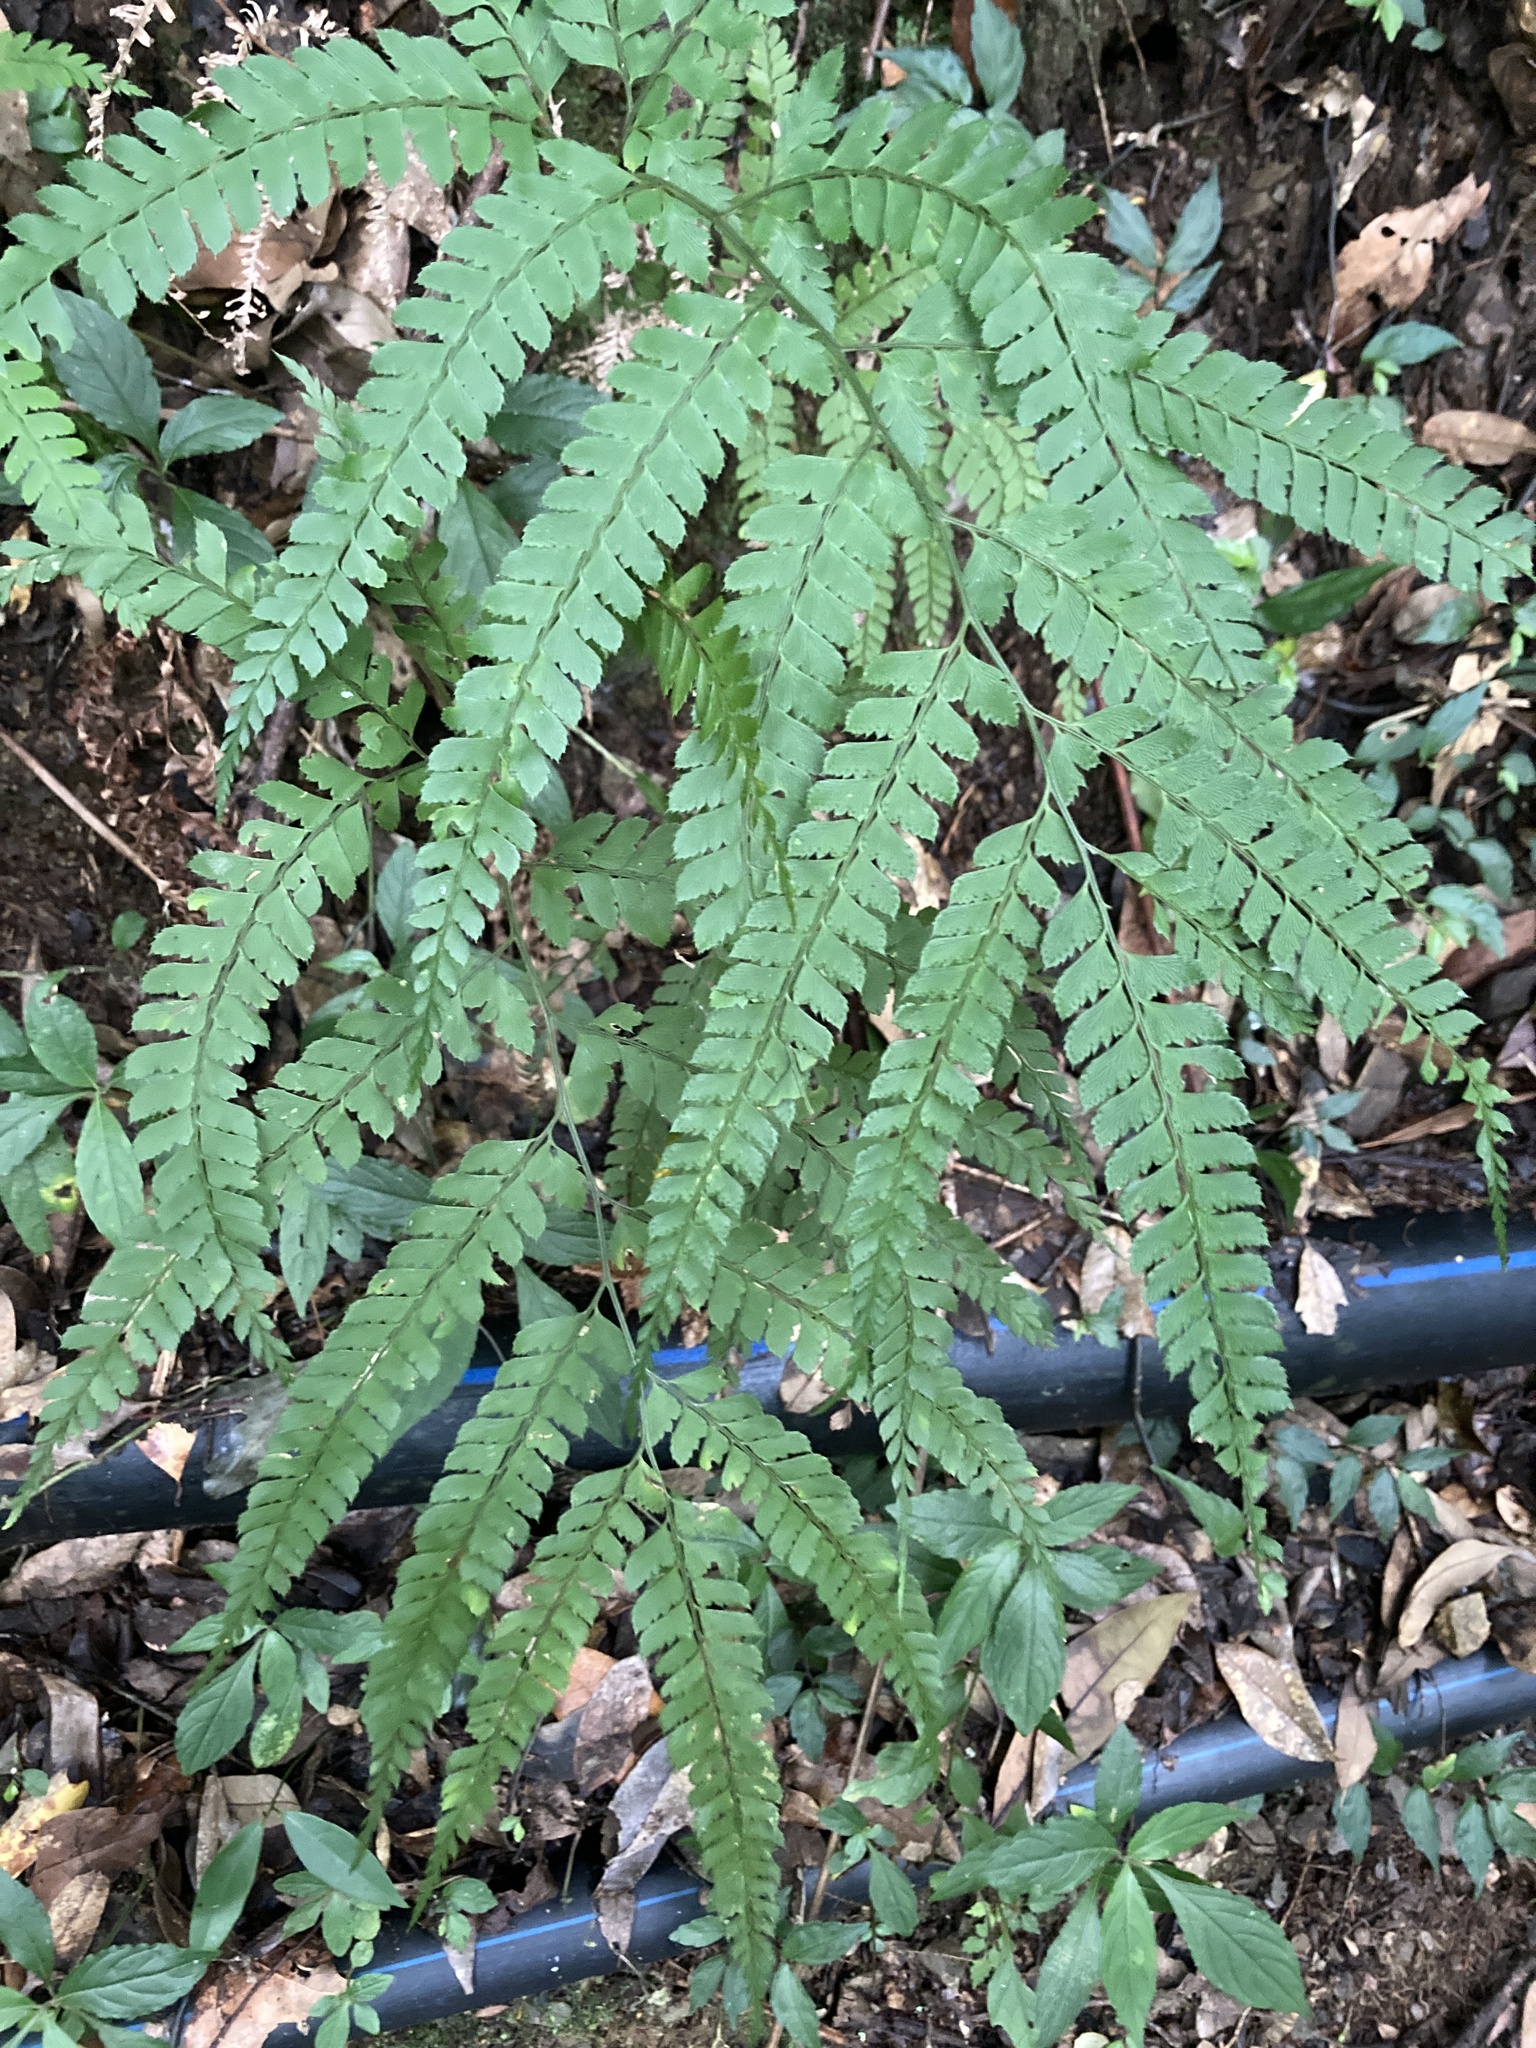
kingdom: Plantae
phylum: Tracheophyta
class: Polypodiopsida
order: Polypodiales
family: Dryopteridaceae
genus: Arachniodes
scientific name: Arachniodes amabilis
